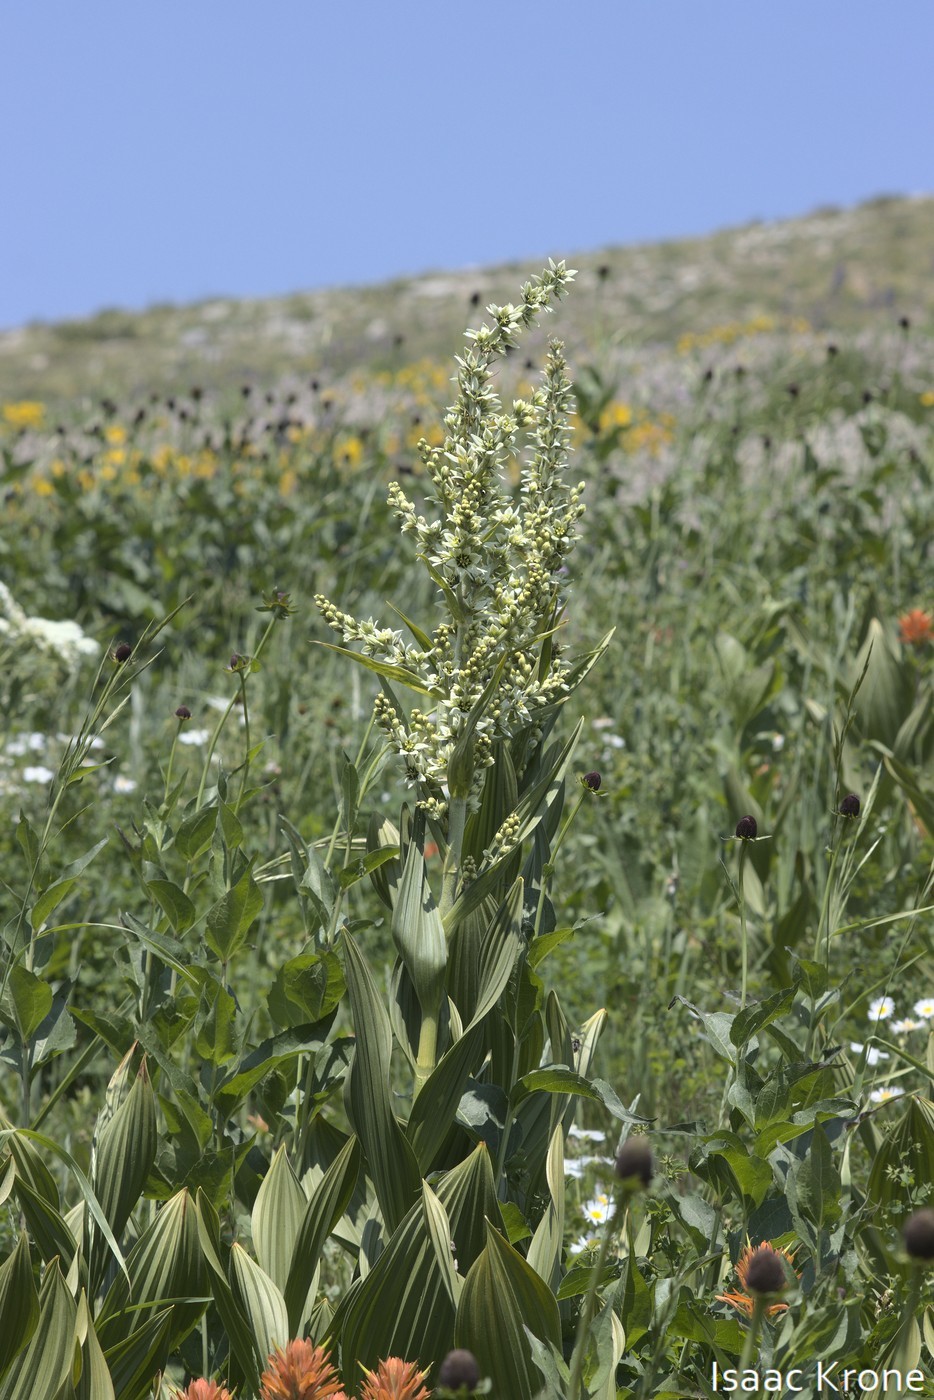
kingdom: Plantae
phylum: Tracheophyta
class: Liliopsida
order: Liliales
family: Melanthiaceae
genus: Veratrum
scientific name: Veratrum californicum
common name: California veratrum
